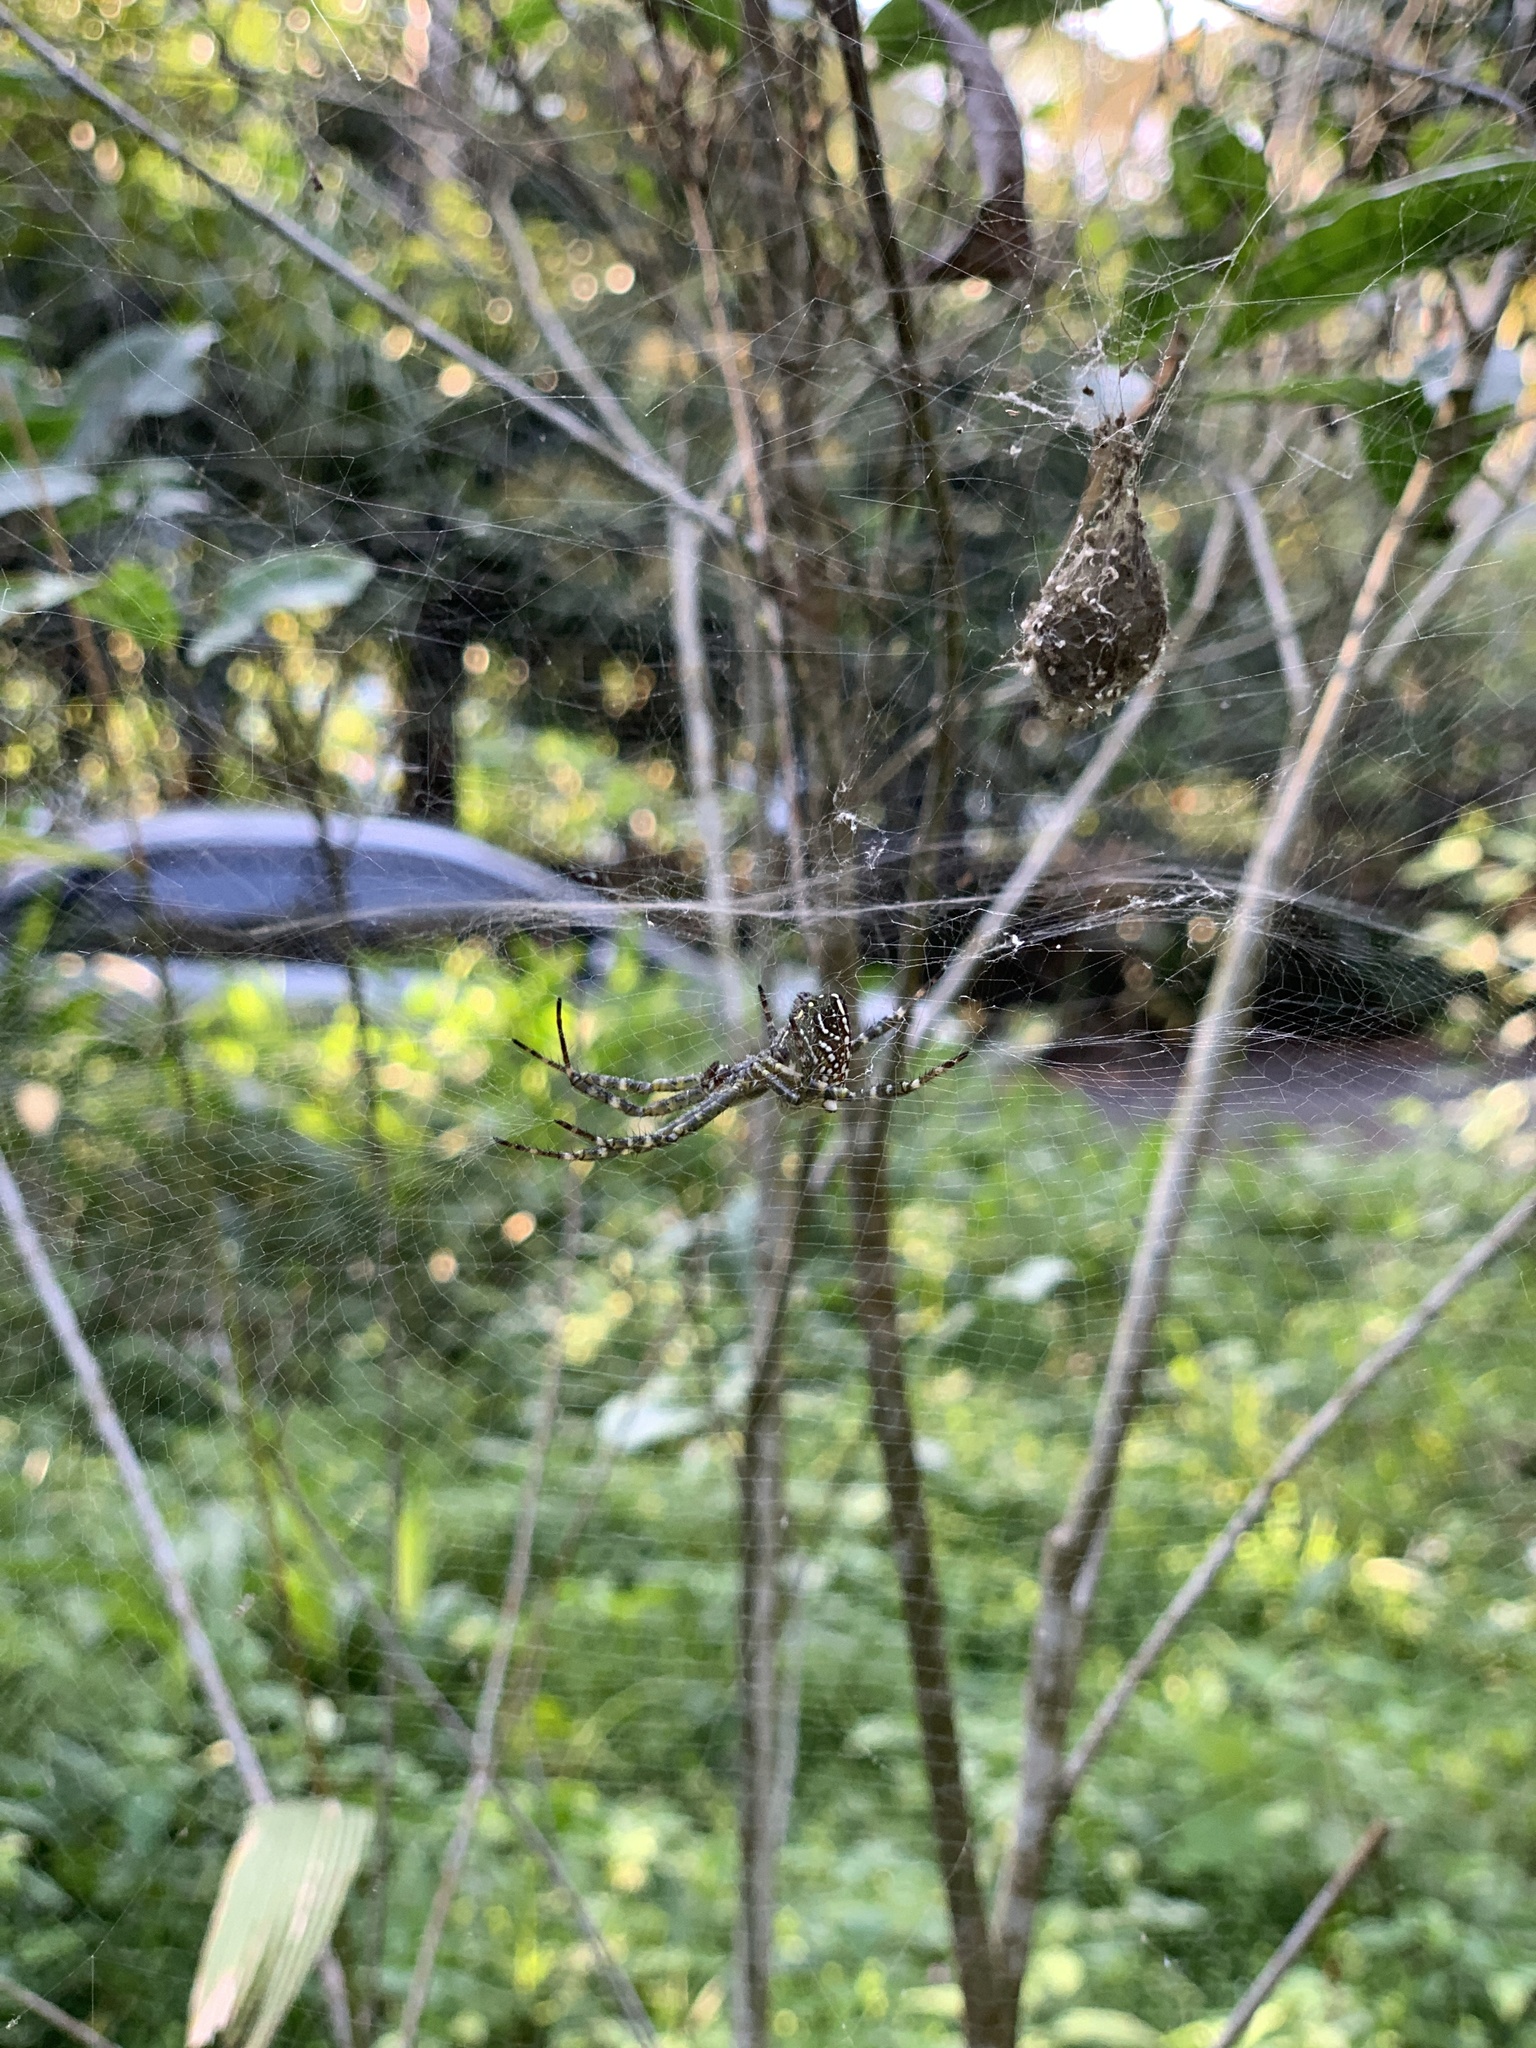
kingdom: Chromista
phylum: Ochrophyta
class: Dictyochophyceae
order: Pedinellales
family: Cyrtophoraceae
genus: Cyrtophora
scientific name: Cyrtophora moluccensis
